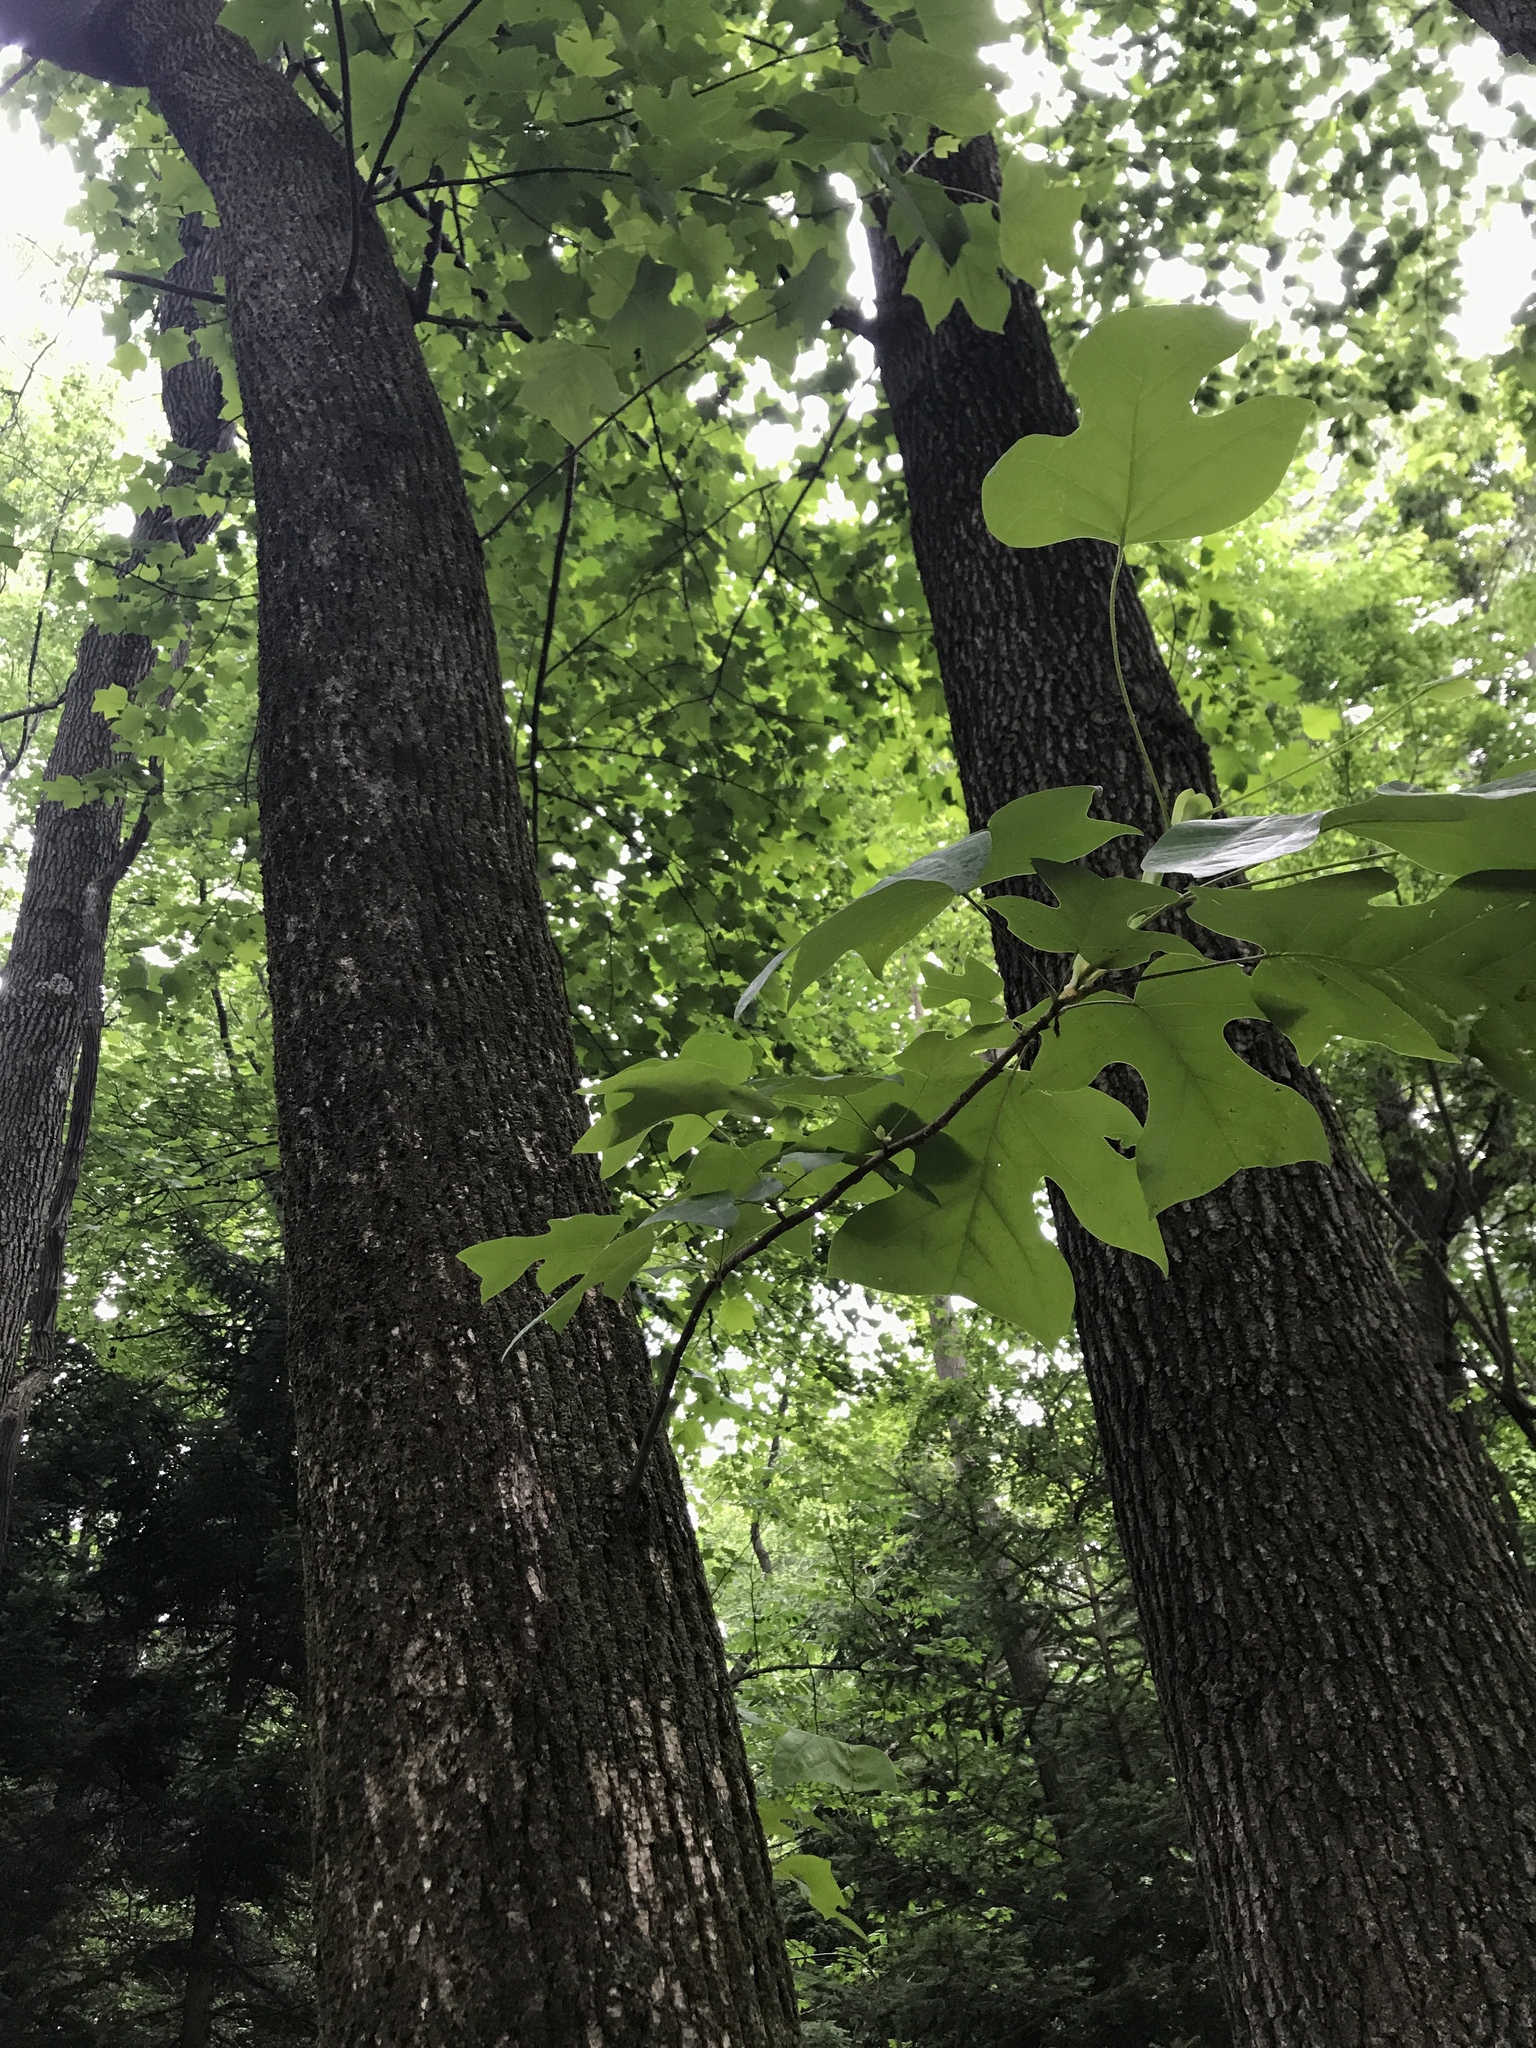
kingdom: Plantae
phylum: Tracheophyta
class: Magnoliopsida
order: Magnoliales
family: Magnoliaceae
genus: Liriodendron
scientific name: Liriodendron tulipifera
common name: Tulip tree
